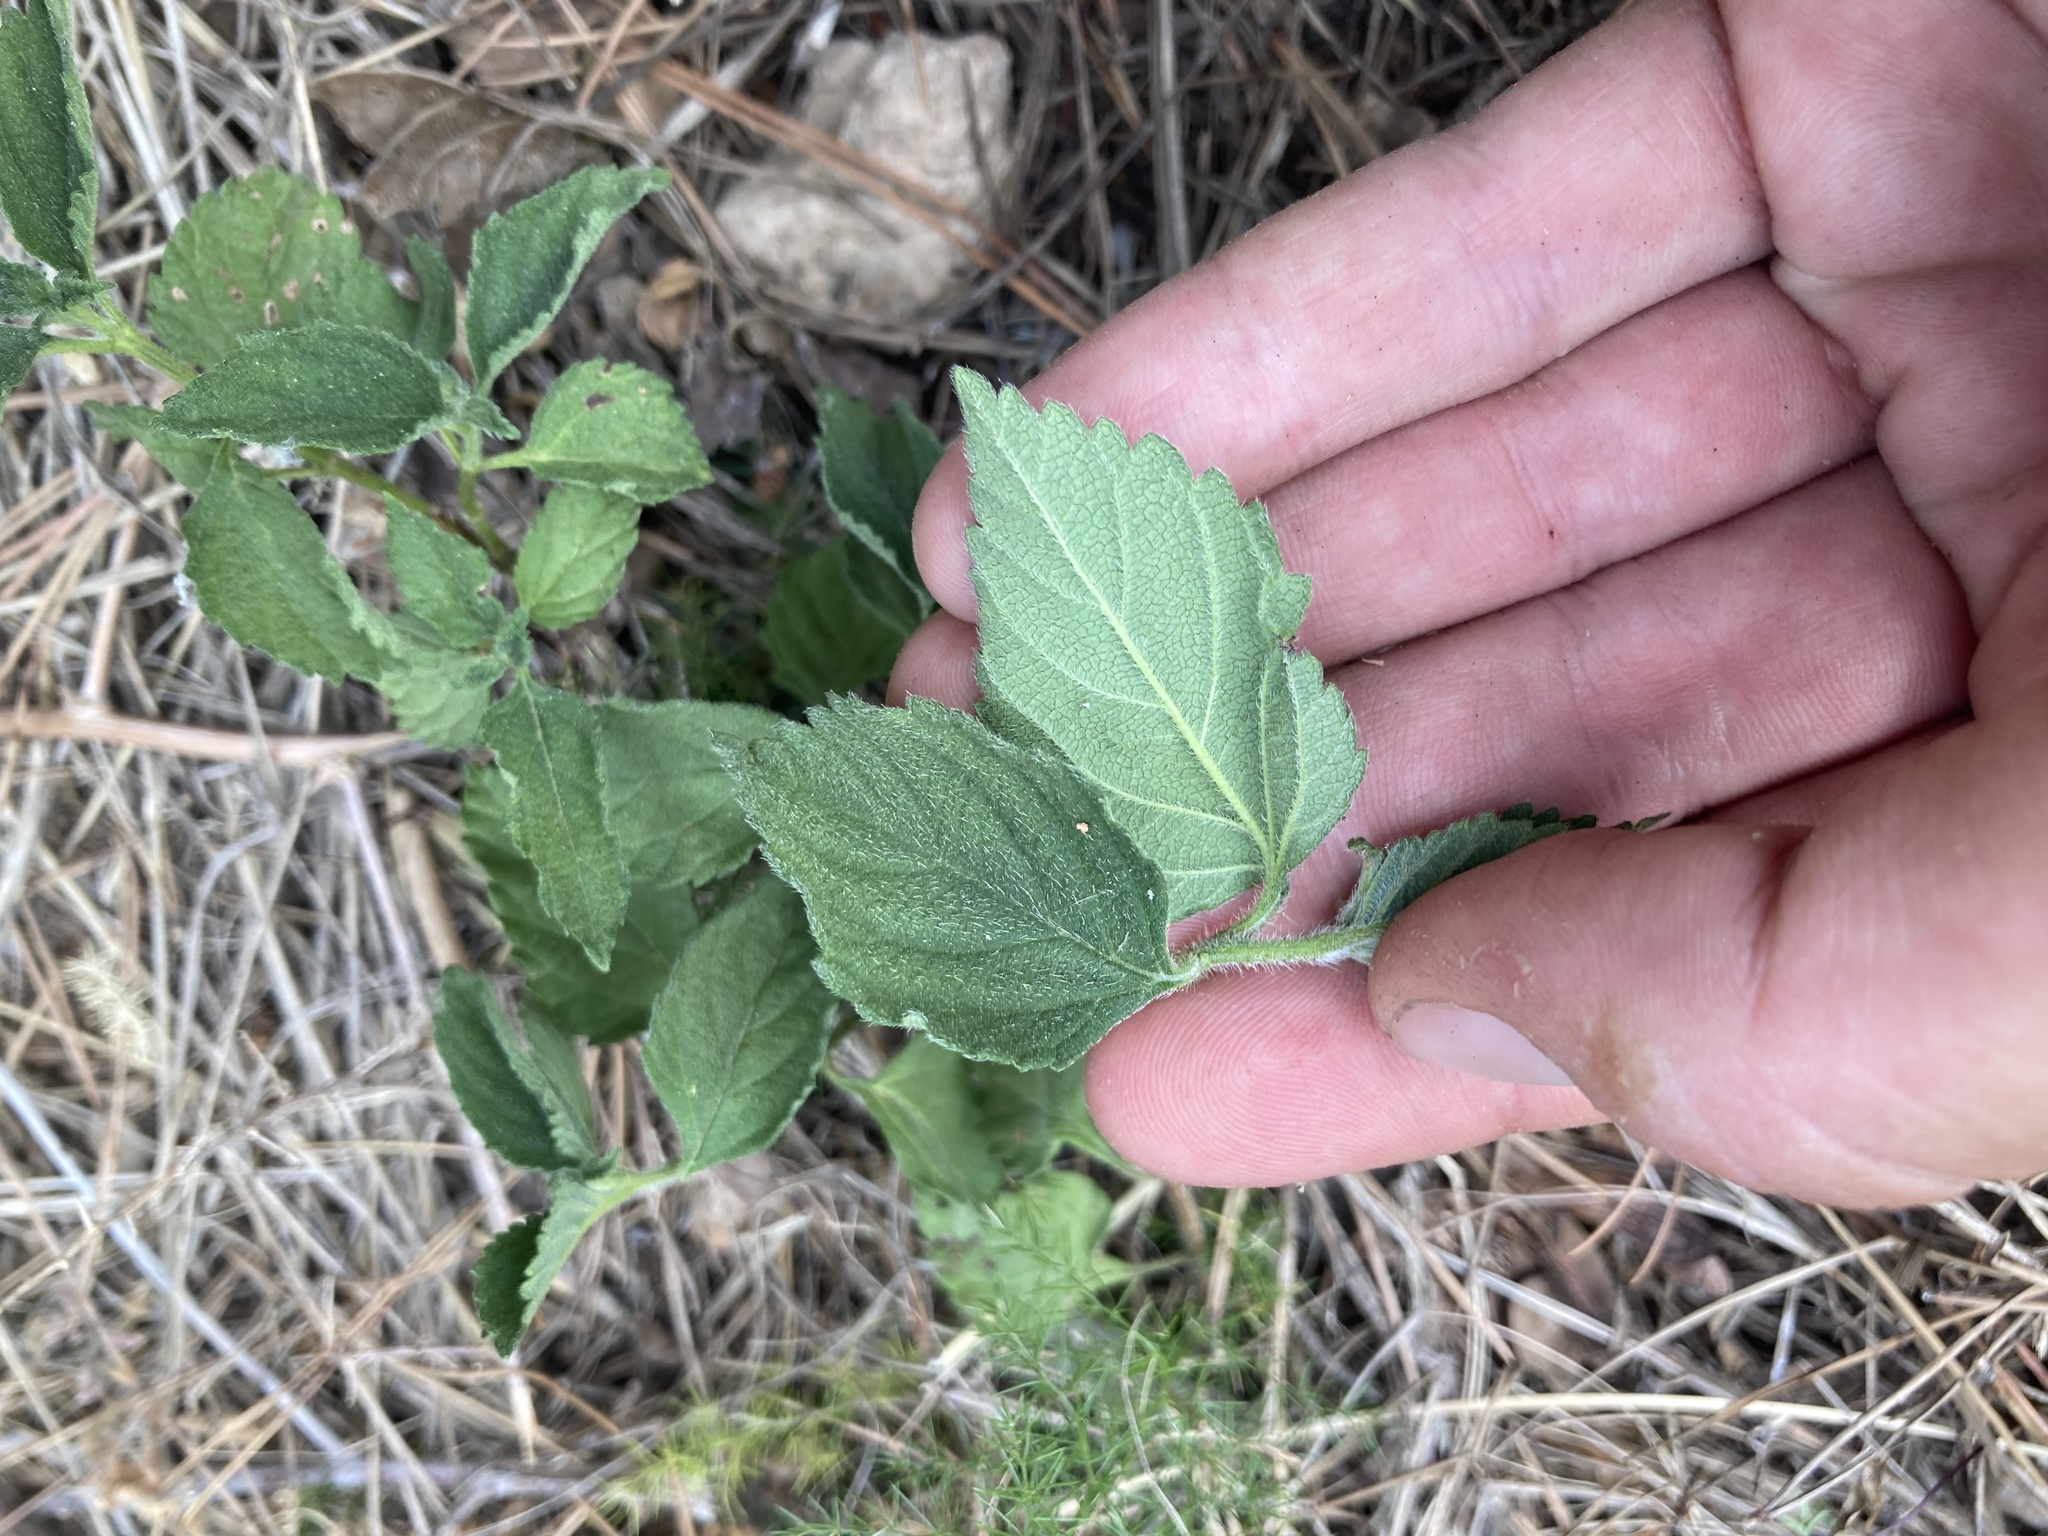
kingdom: Plantae
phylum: Tracheophyta
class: Magnoliopsida
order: Lamiales
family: Verbenaceae
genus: Lantana
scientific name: Lantana camara
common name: Lantana
